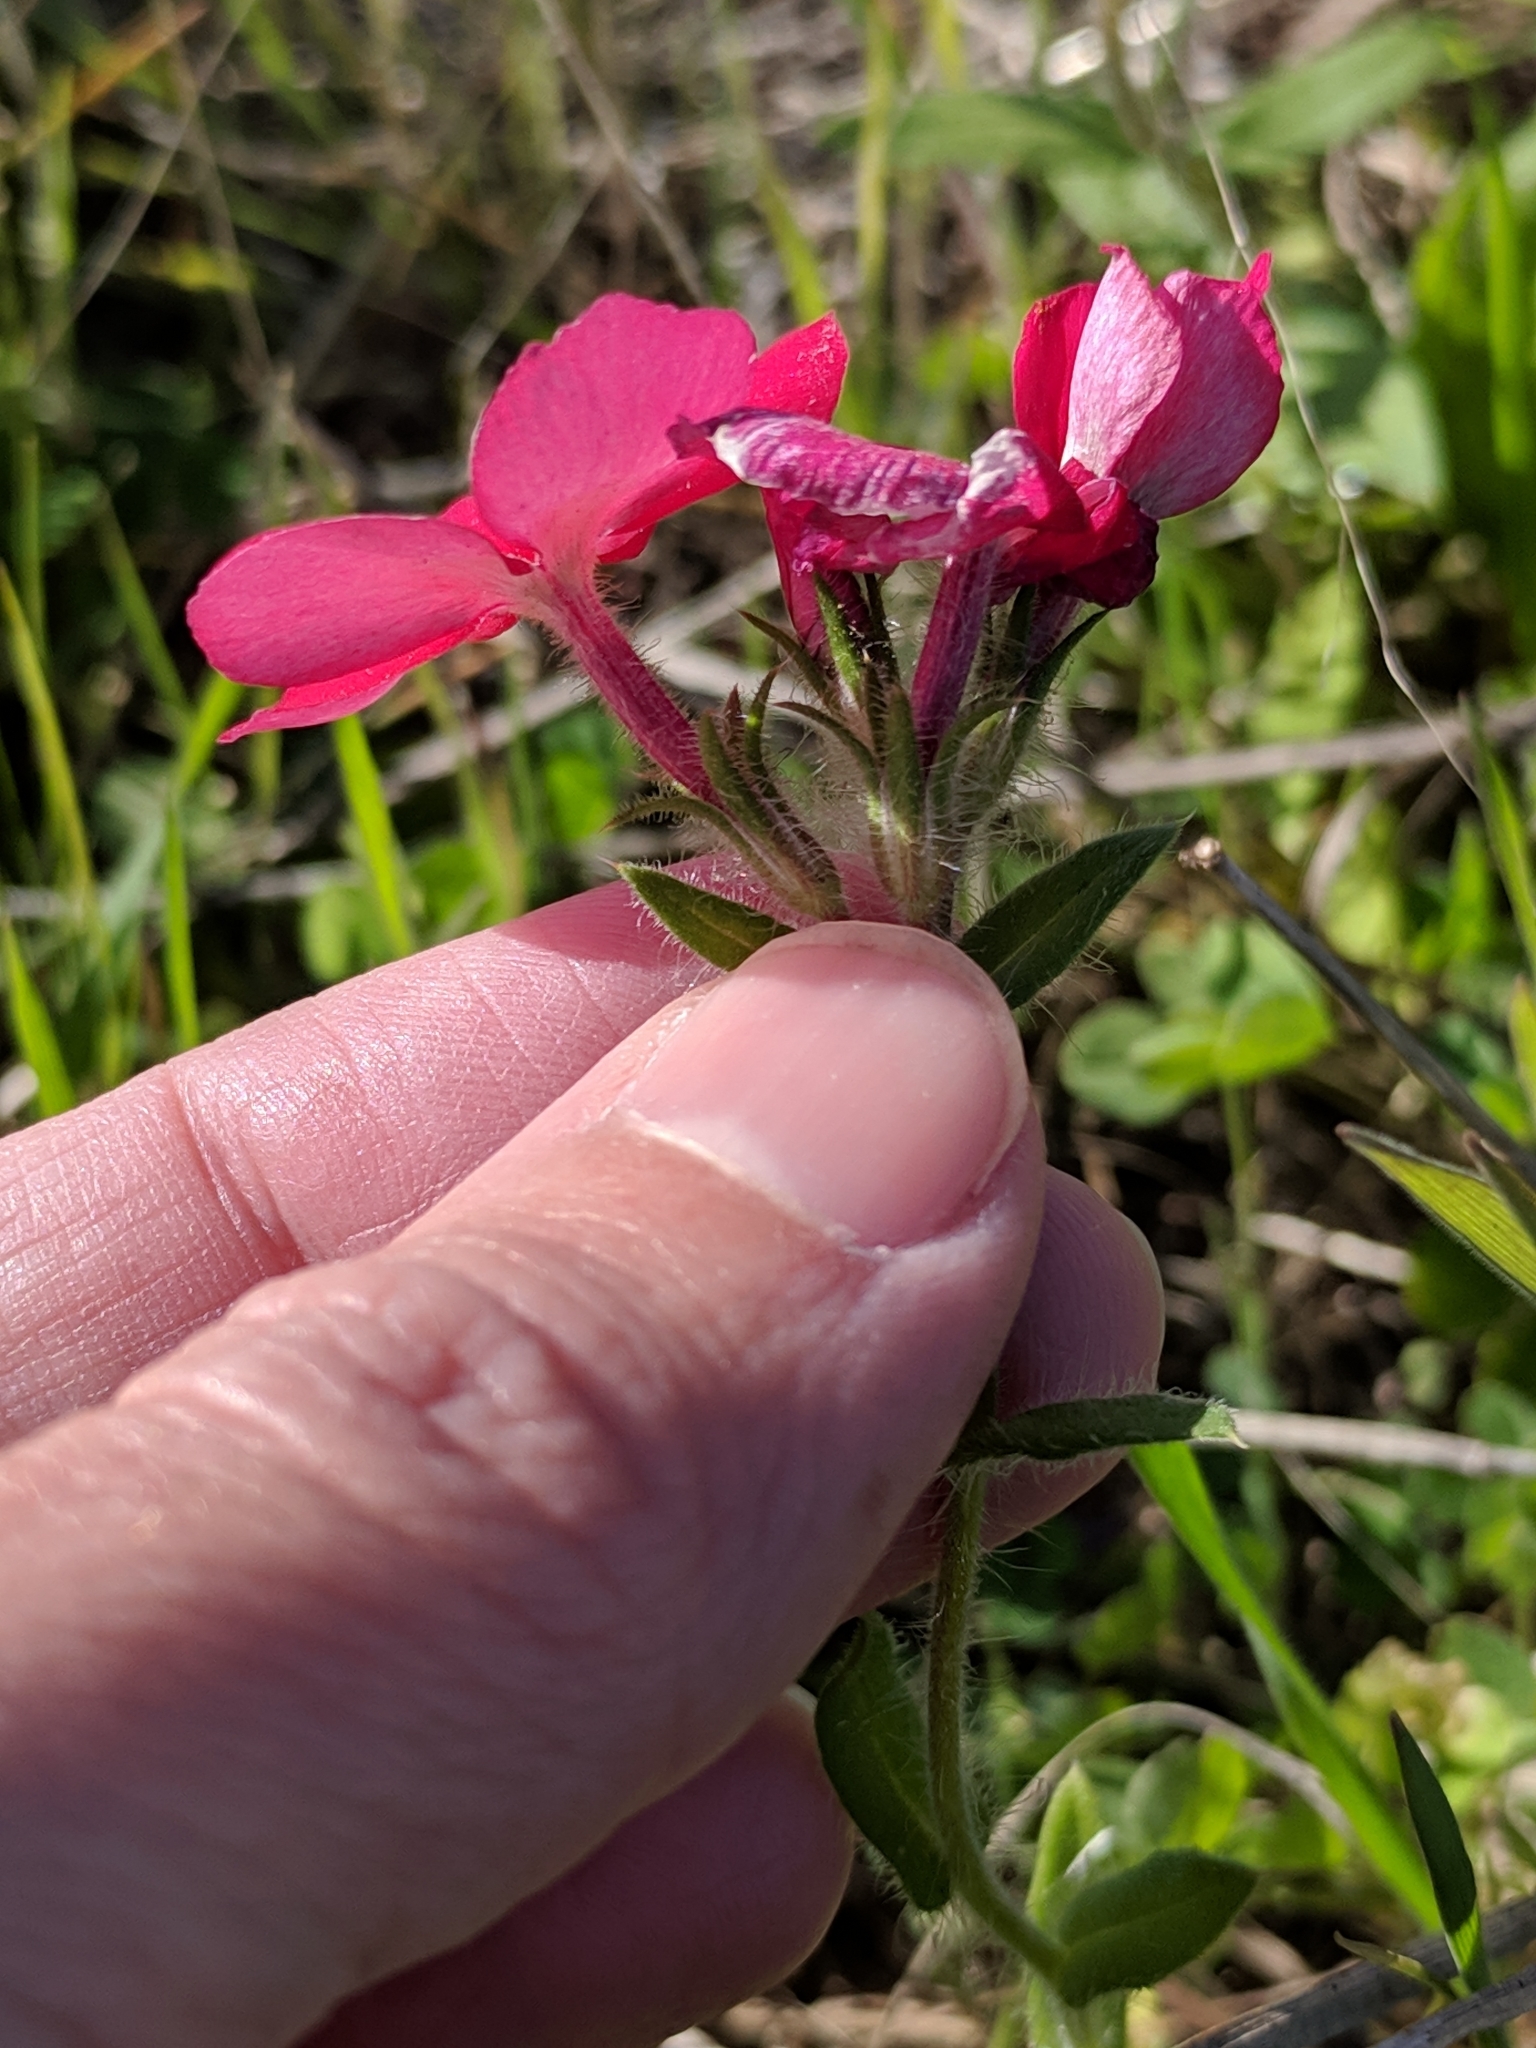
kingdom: Plantae
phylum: Tracheophyta
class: Magnoliopsida
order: Ericales
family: Polemoniaceae
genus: Phlox
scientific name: Phlox drummondii
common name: Drummond's phlox
